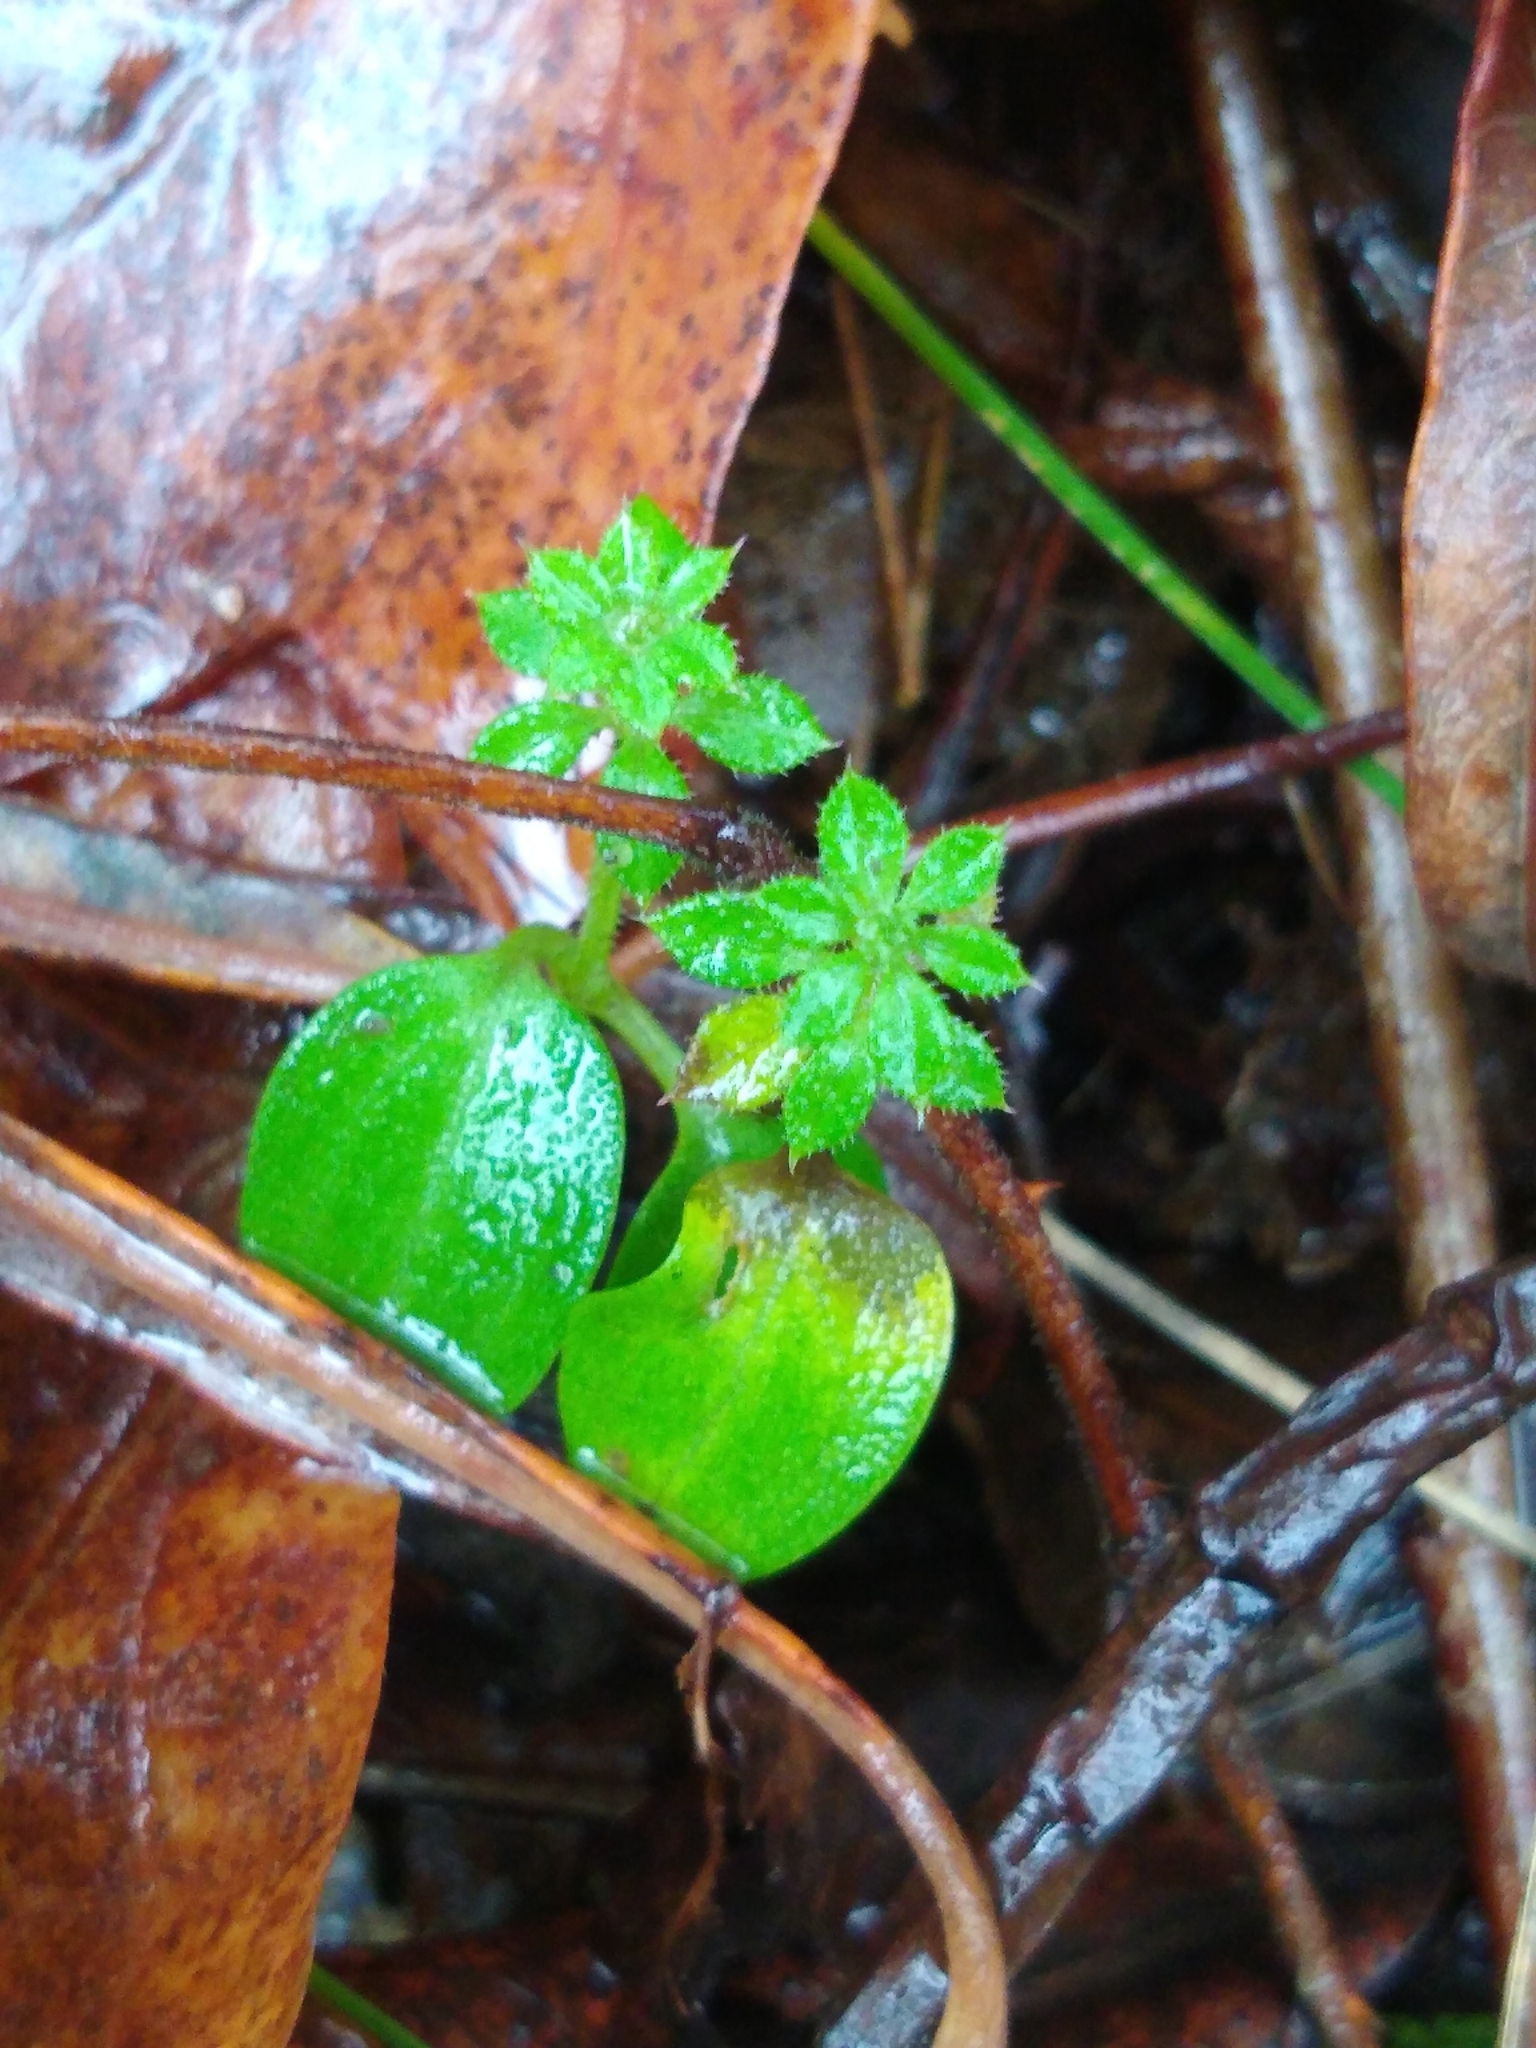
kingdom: Plantae
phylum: Tracheophyta
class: Magnoliopsida
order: Gentianales
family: Rubiaceae
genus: Galium
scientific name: Galium aparine
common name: Cleavers
